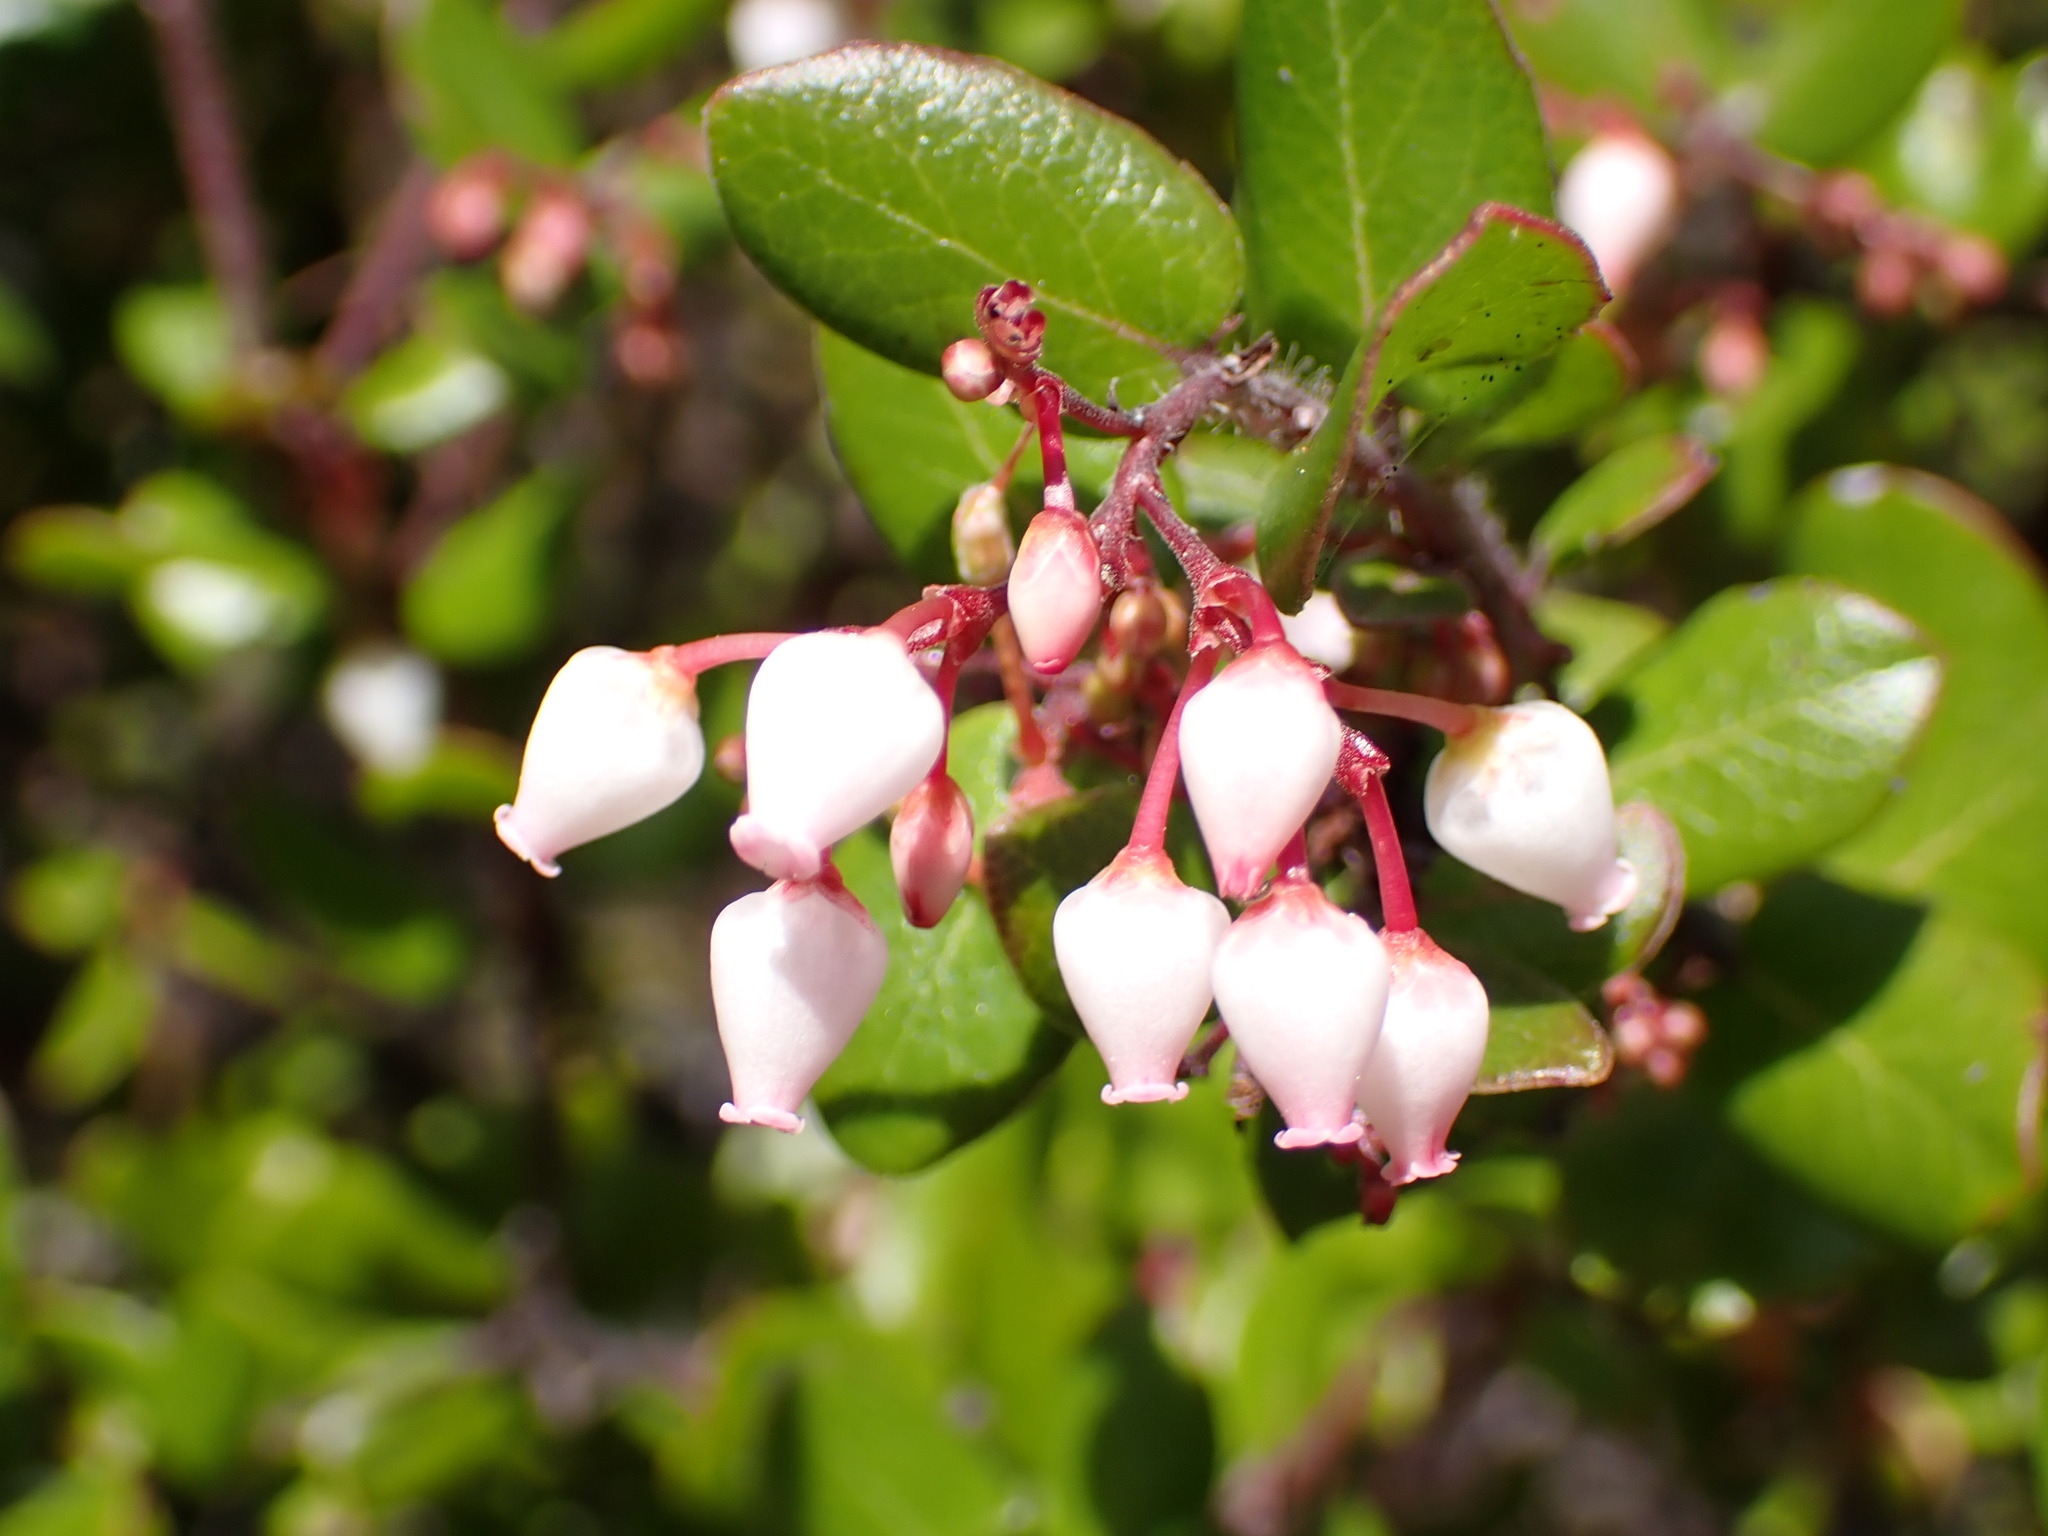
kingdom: Plantae
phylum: Tracheophyta
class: Magnoliopsida
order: Ericales
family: Ericaceae
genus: Arctostaphylos
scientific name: Arctostaphylos nummularia
